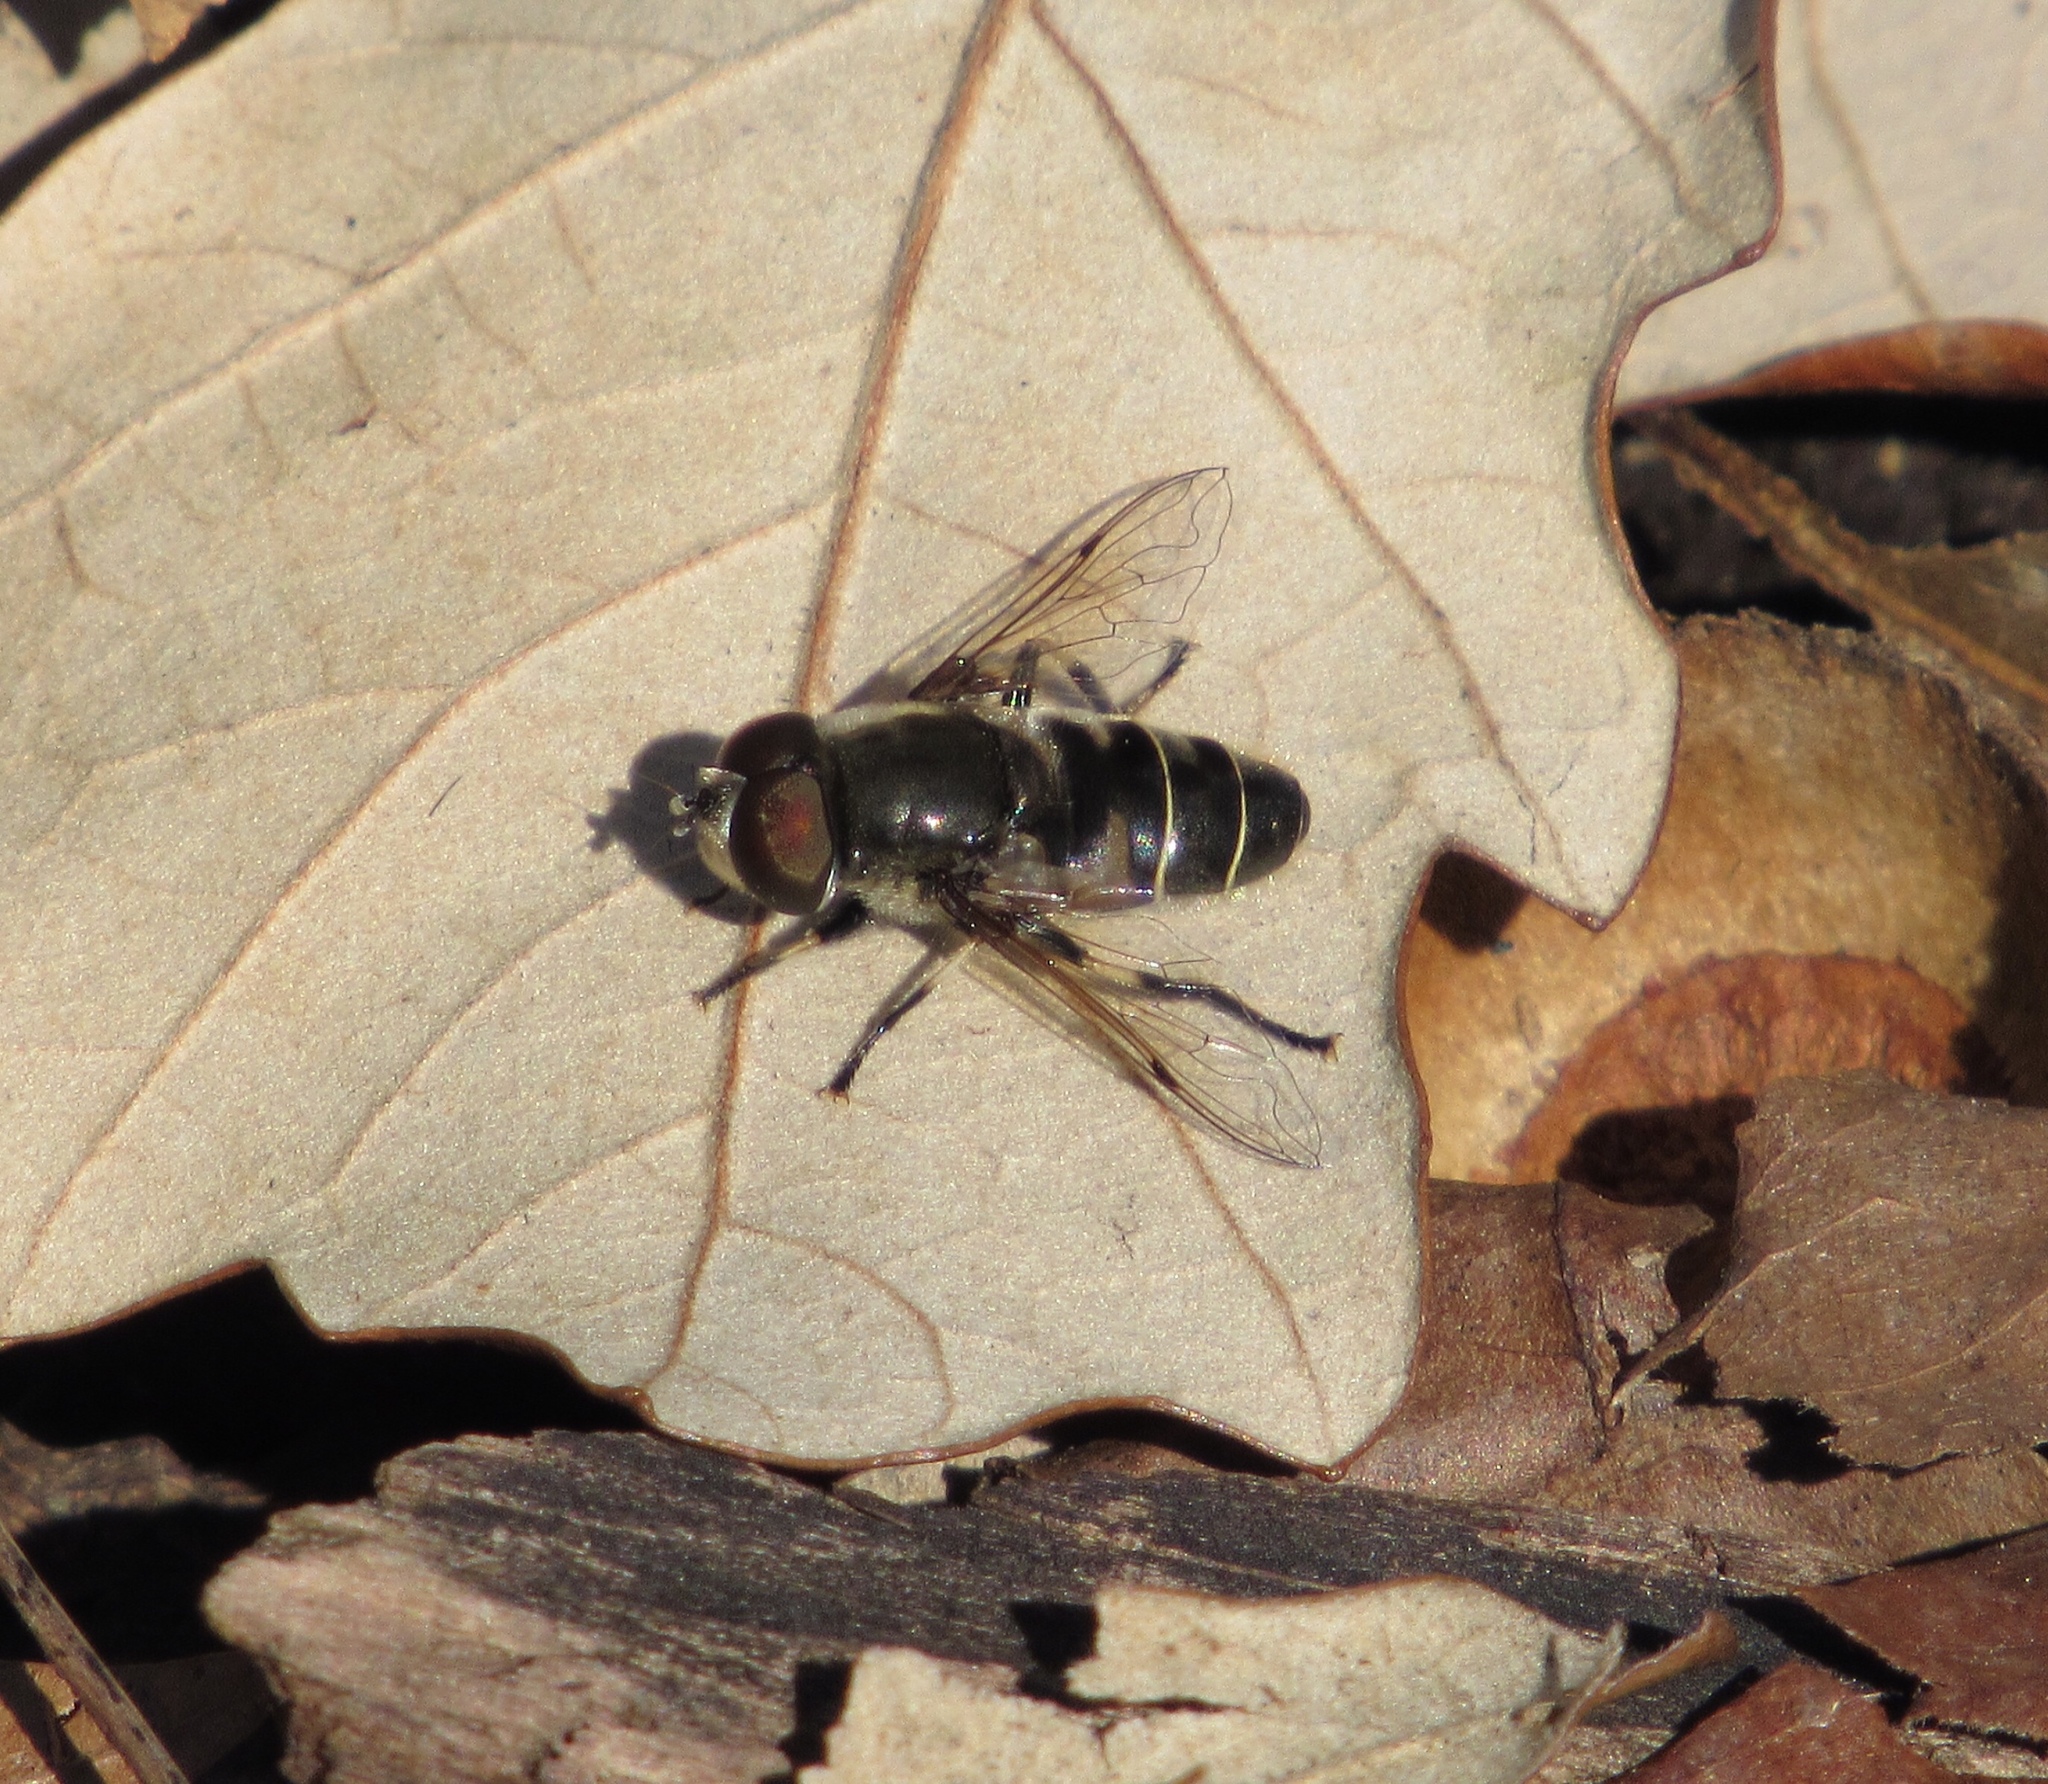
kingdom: Animalia
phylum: Arthropoda
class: Insecta
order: Diptera
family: Syrphidae
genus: Eristalis
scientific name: Eristalis dimidiata
